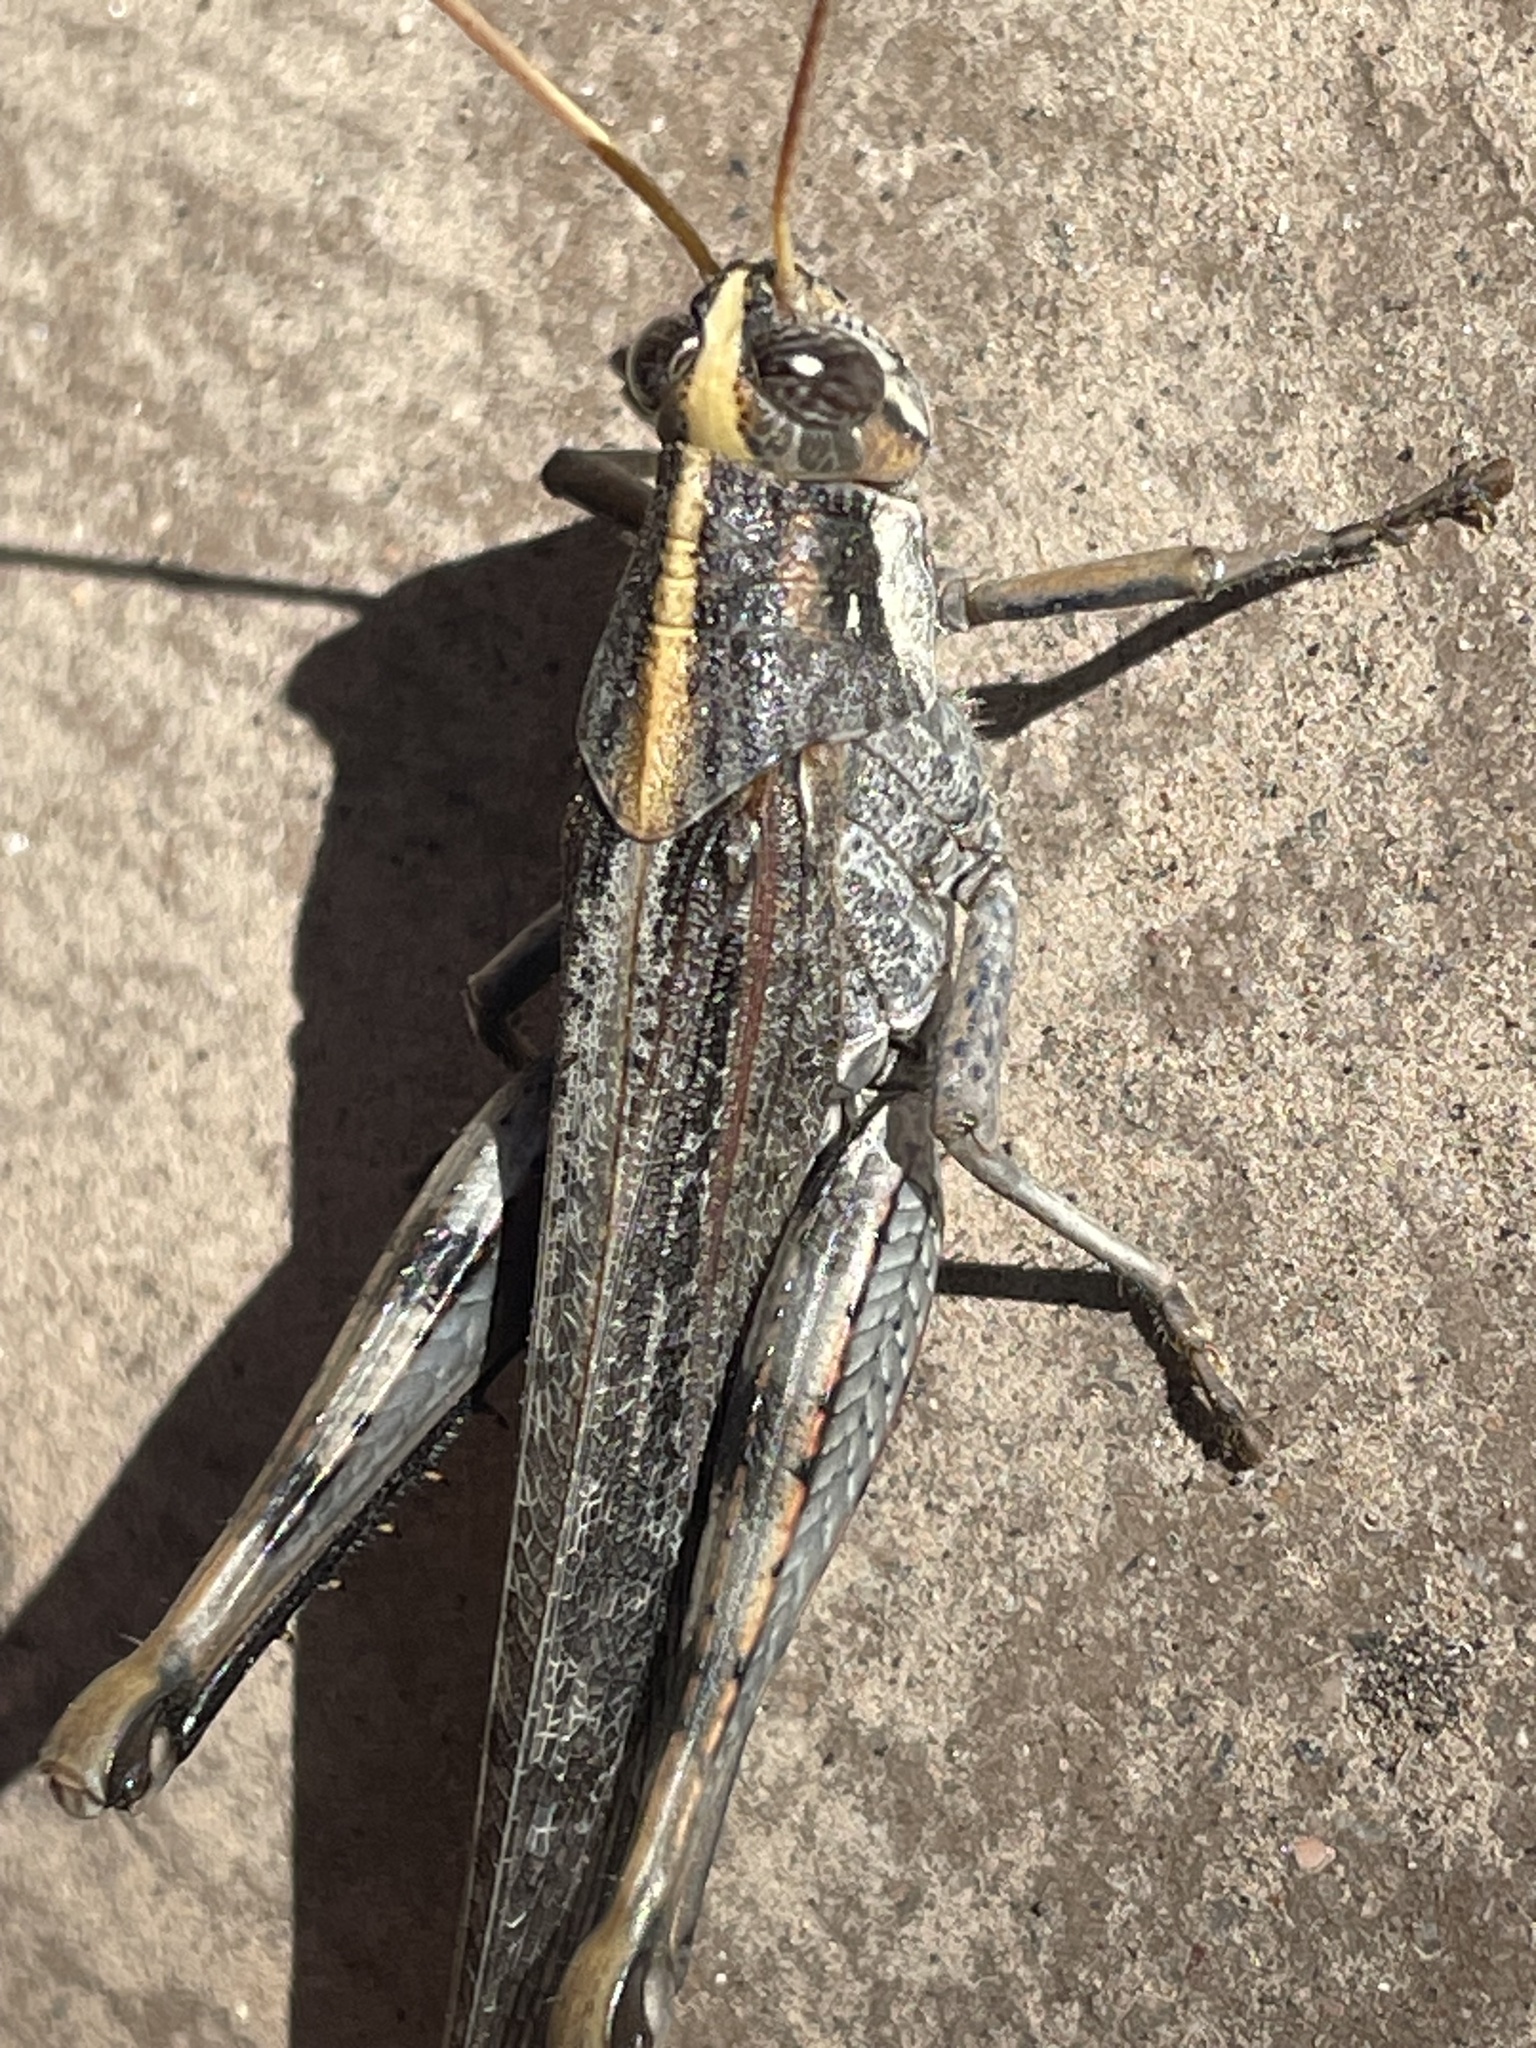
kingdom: Animalia
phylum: Arthropoda
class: Insecta
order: Orthoptera
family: Acrididae
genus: Schistocerca
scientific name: Schistocerca nitens
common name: Vagrant grasshopper
